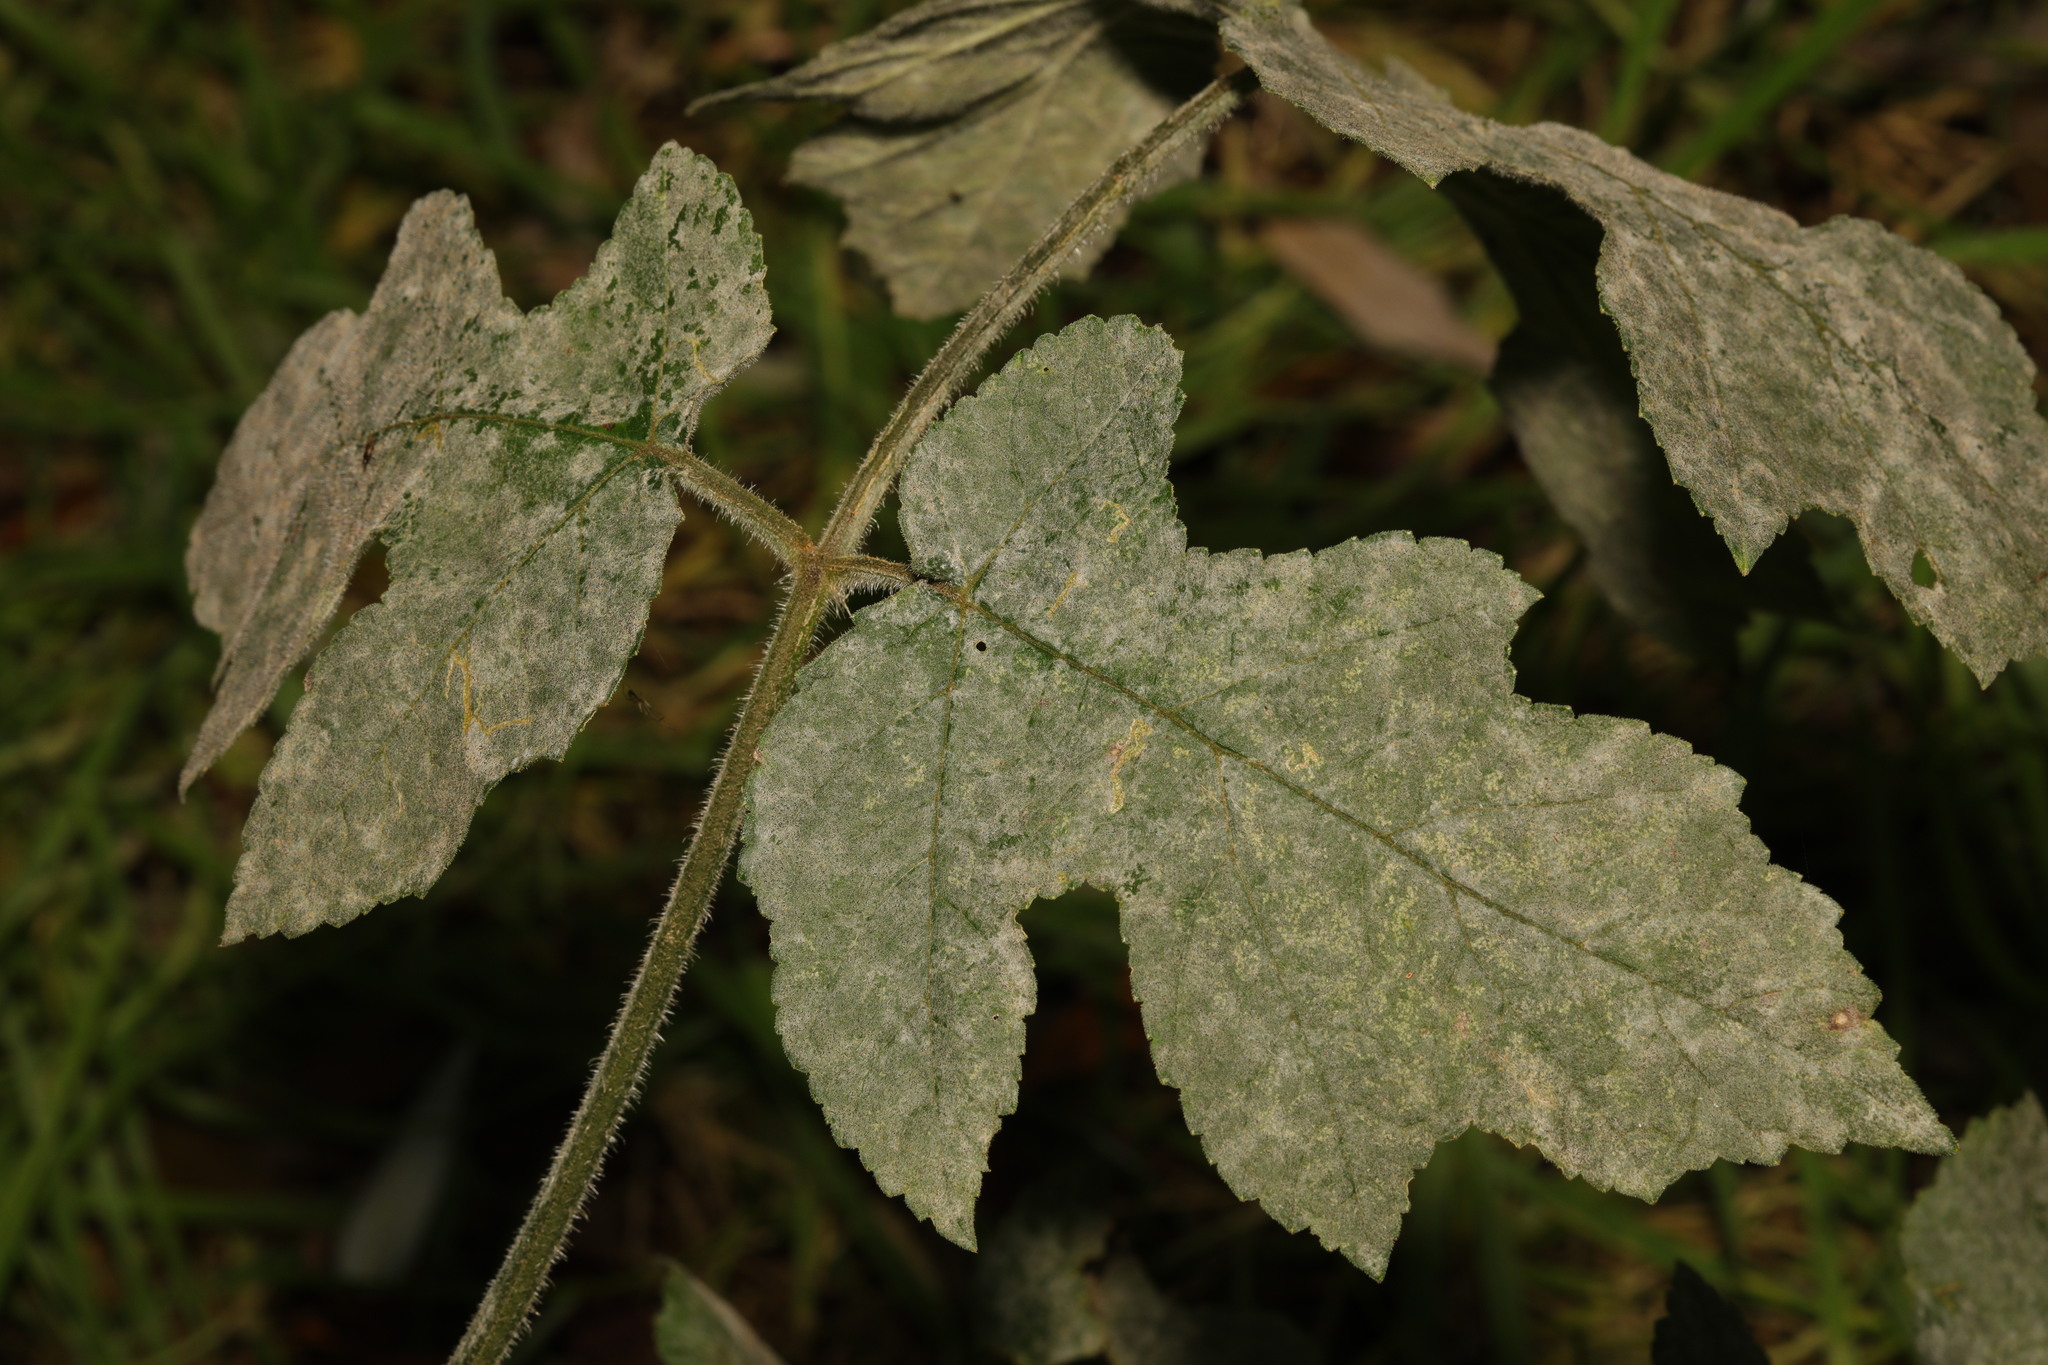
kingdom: Fungi
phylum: Ascomycota
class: Leotiomycetes
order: Helotiales
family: Erysiphaceae
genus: Erysiphe
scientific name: Erysiphe heraclei
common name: Umbellifer mildew
